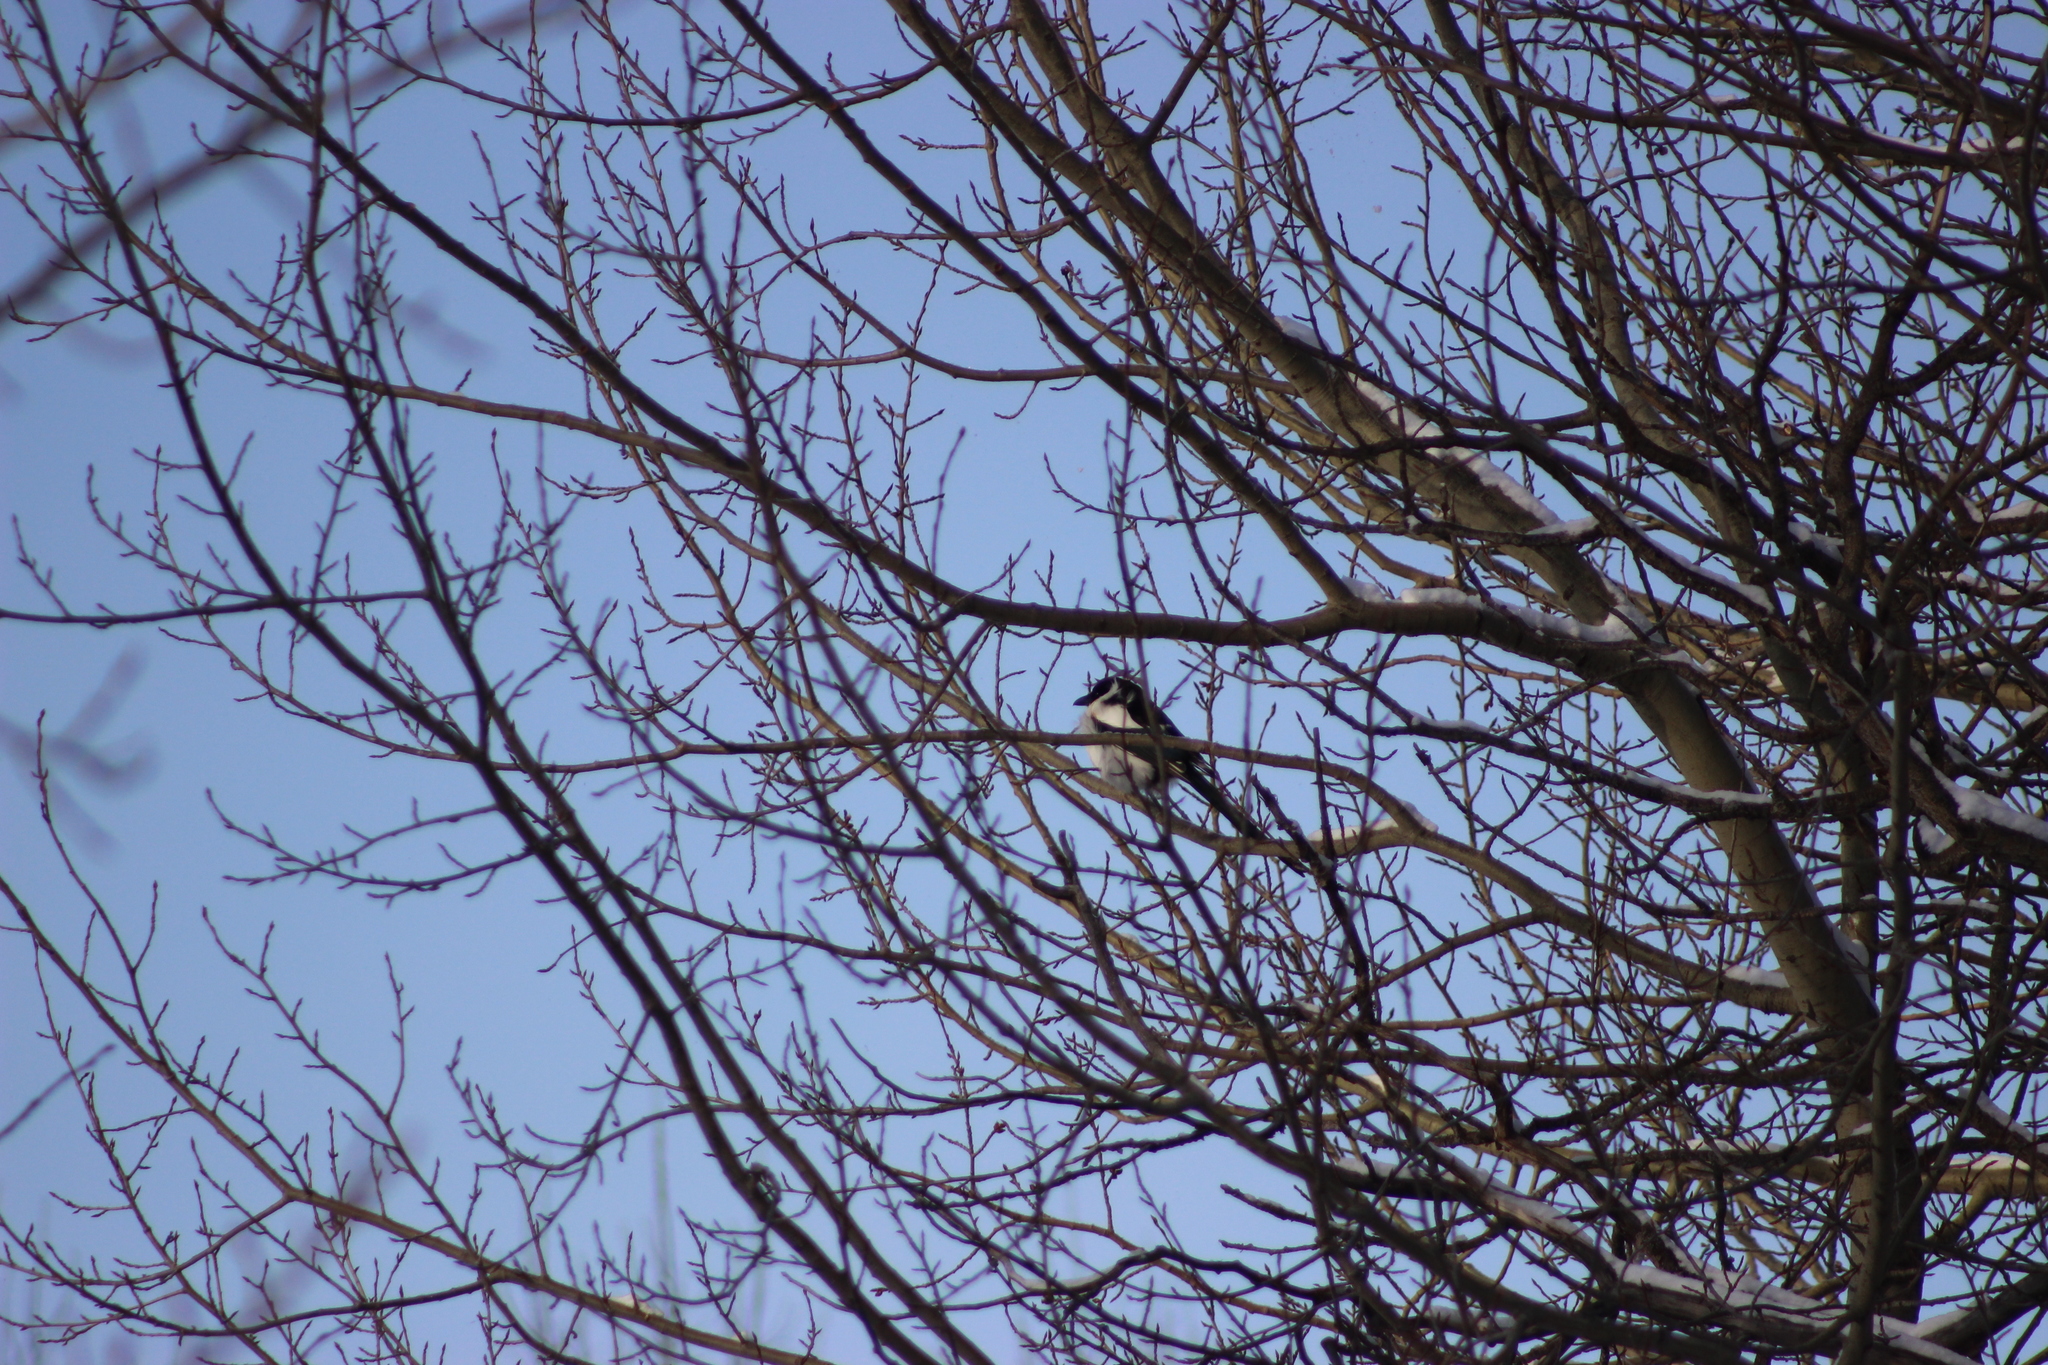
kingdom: Animalia
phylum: Chordata
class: Aves
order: Passeriformes
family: Corvidae
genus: Pica
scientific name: Pica pica
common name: Eurasian magpie
